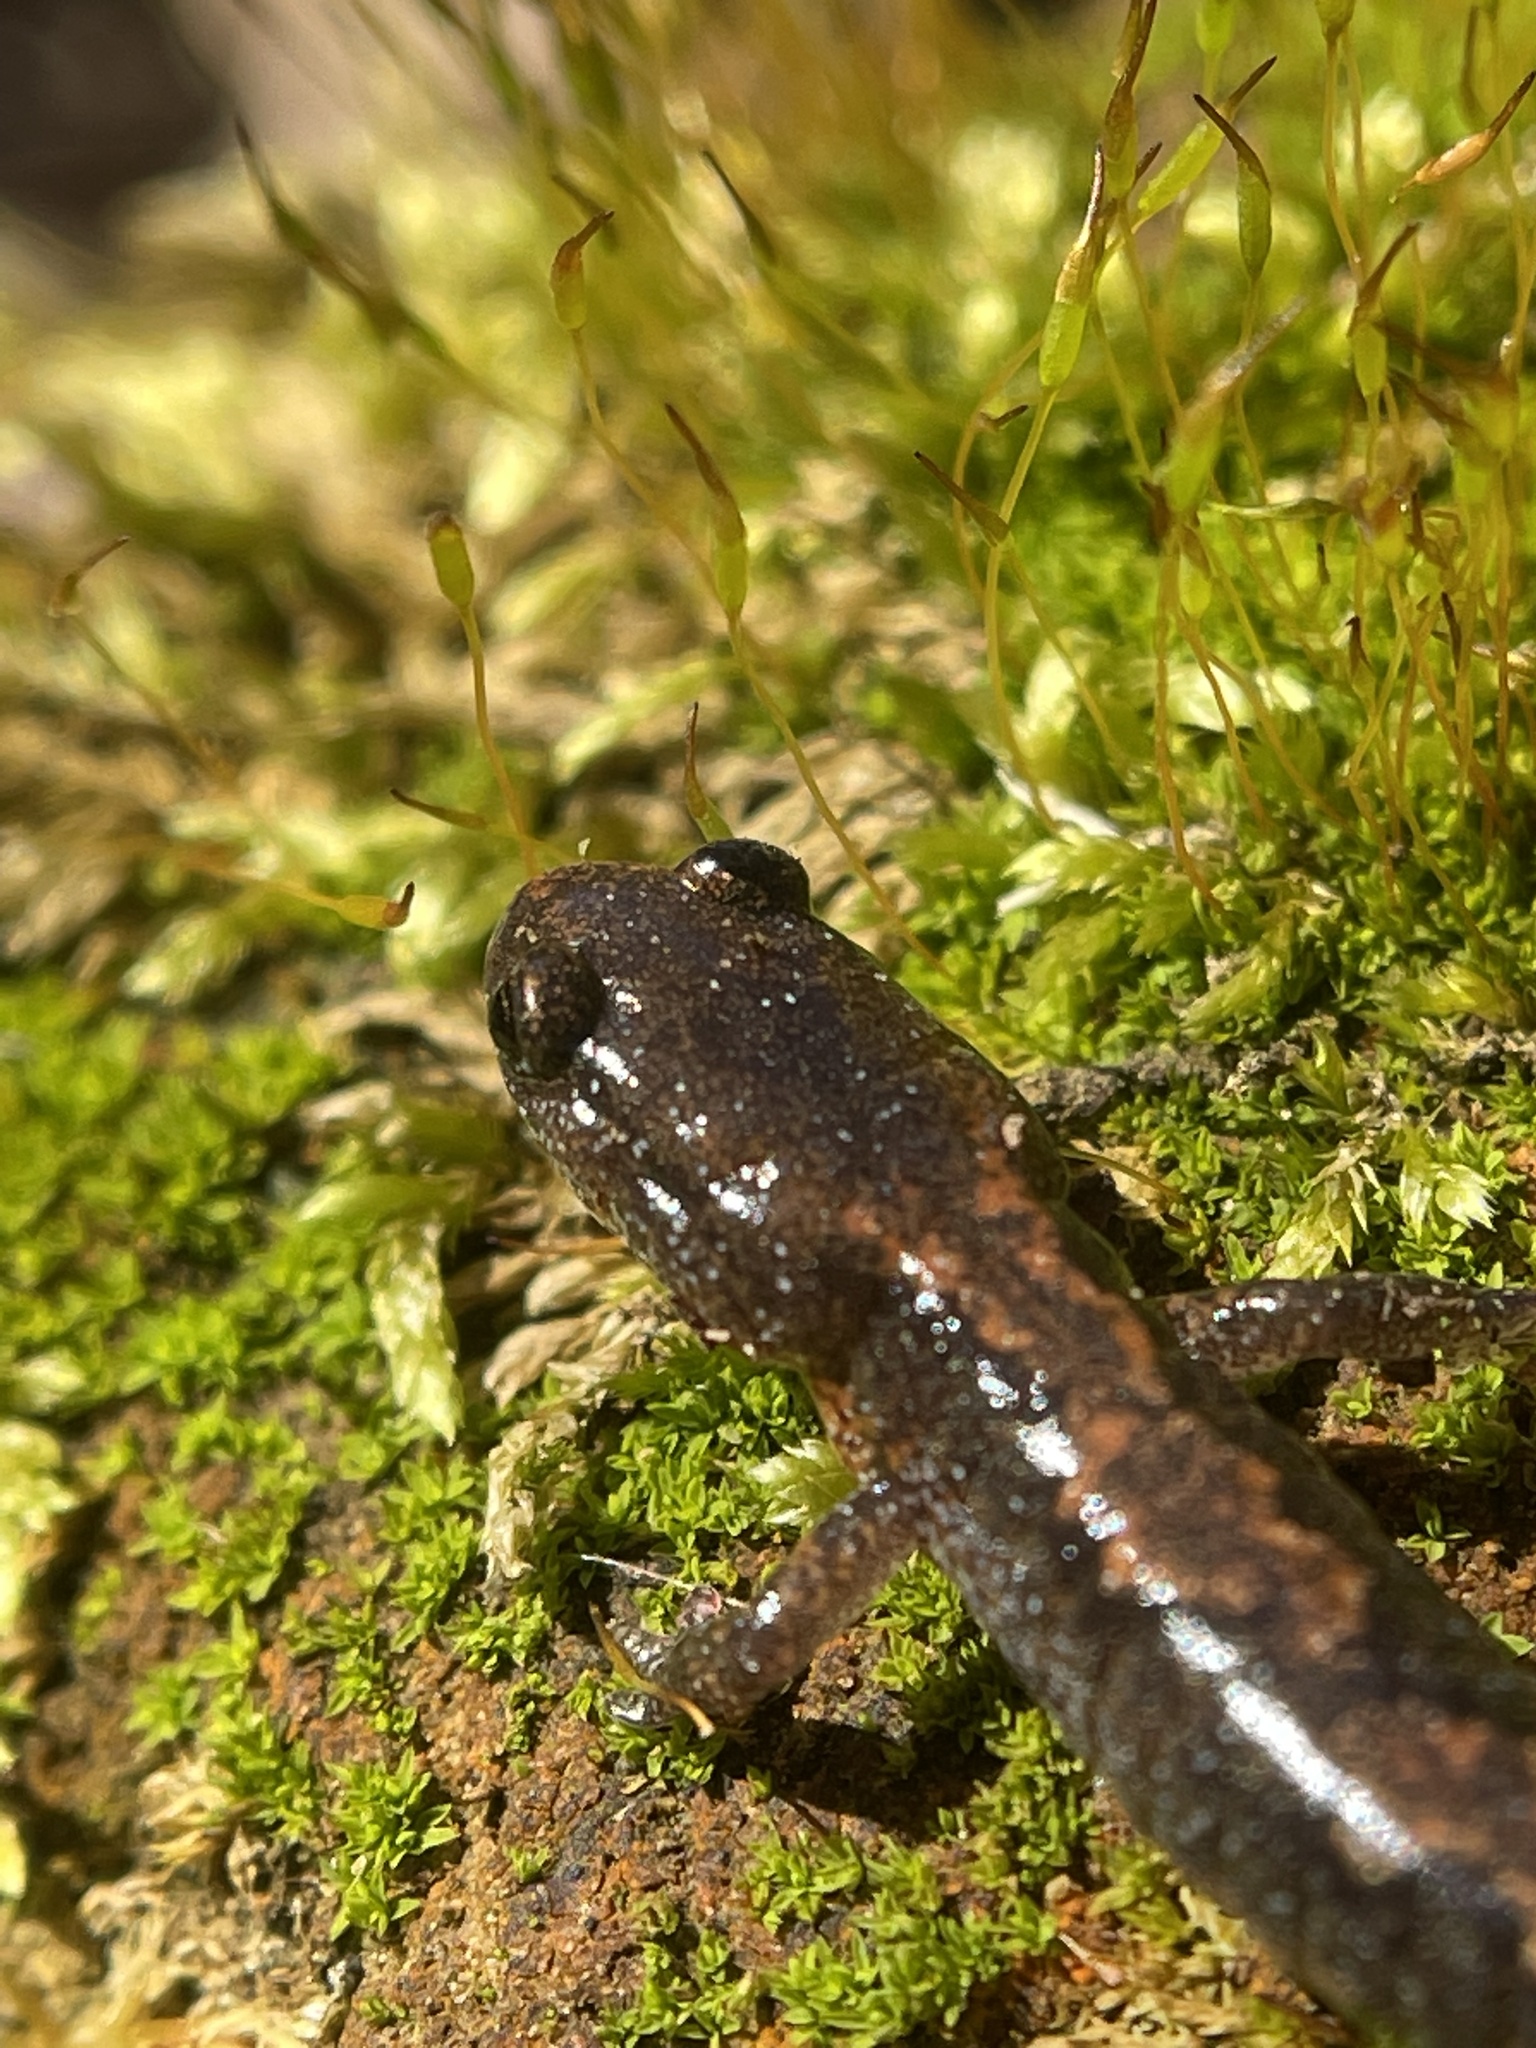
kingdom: Animalia
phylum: Chordata
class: Amphibia
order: Caudata
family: Plethodontidae
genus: Plethodon
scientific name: Plethodon dorsalis
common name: Northern zigzag salamander
